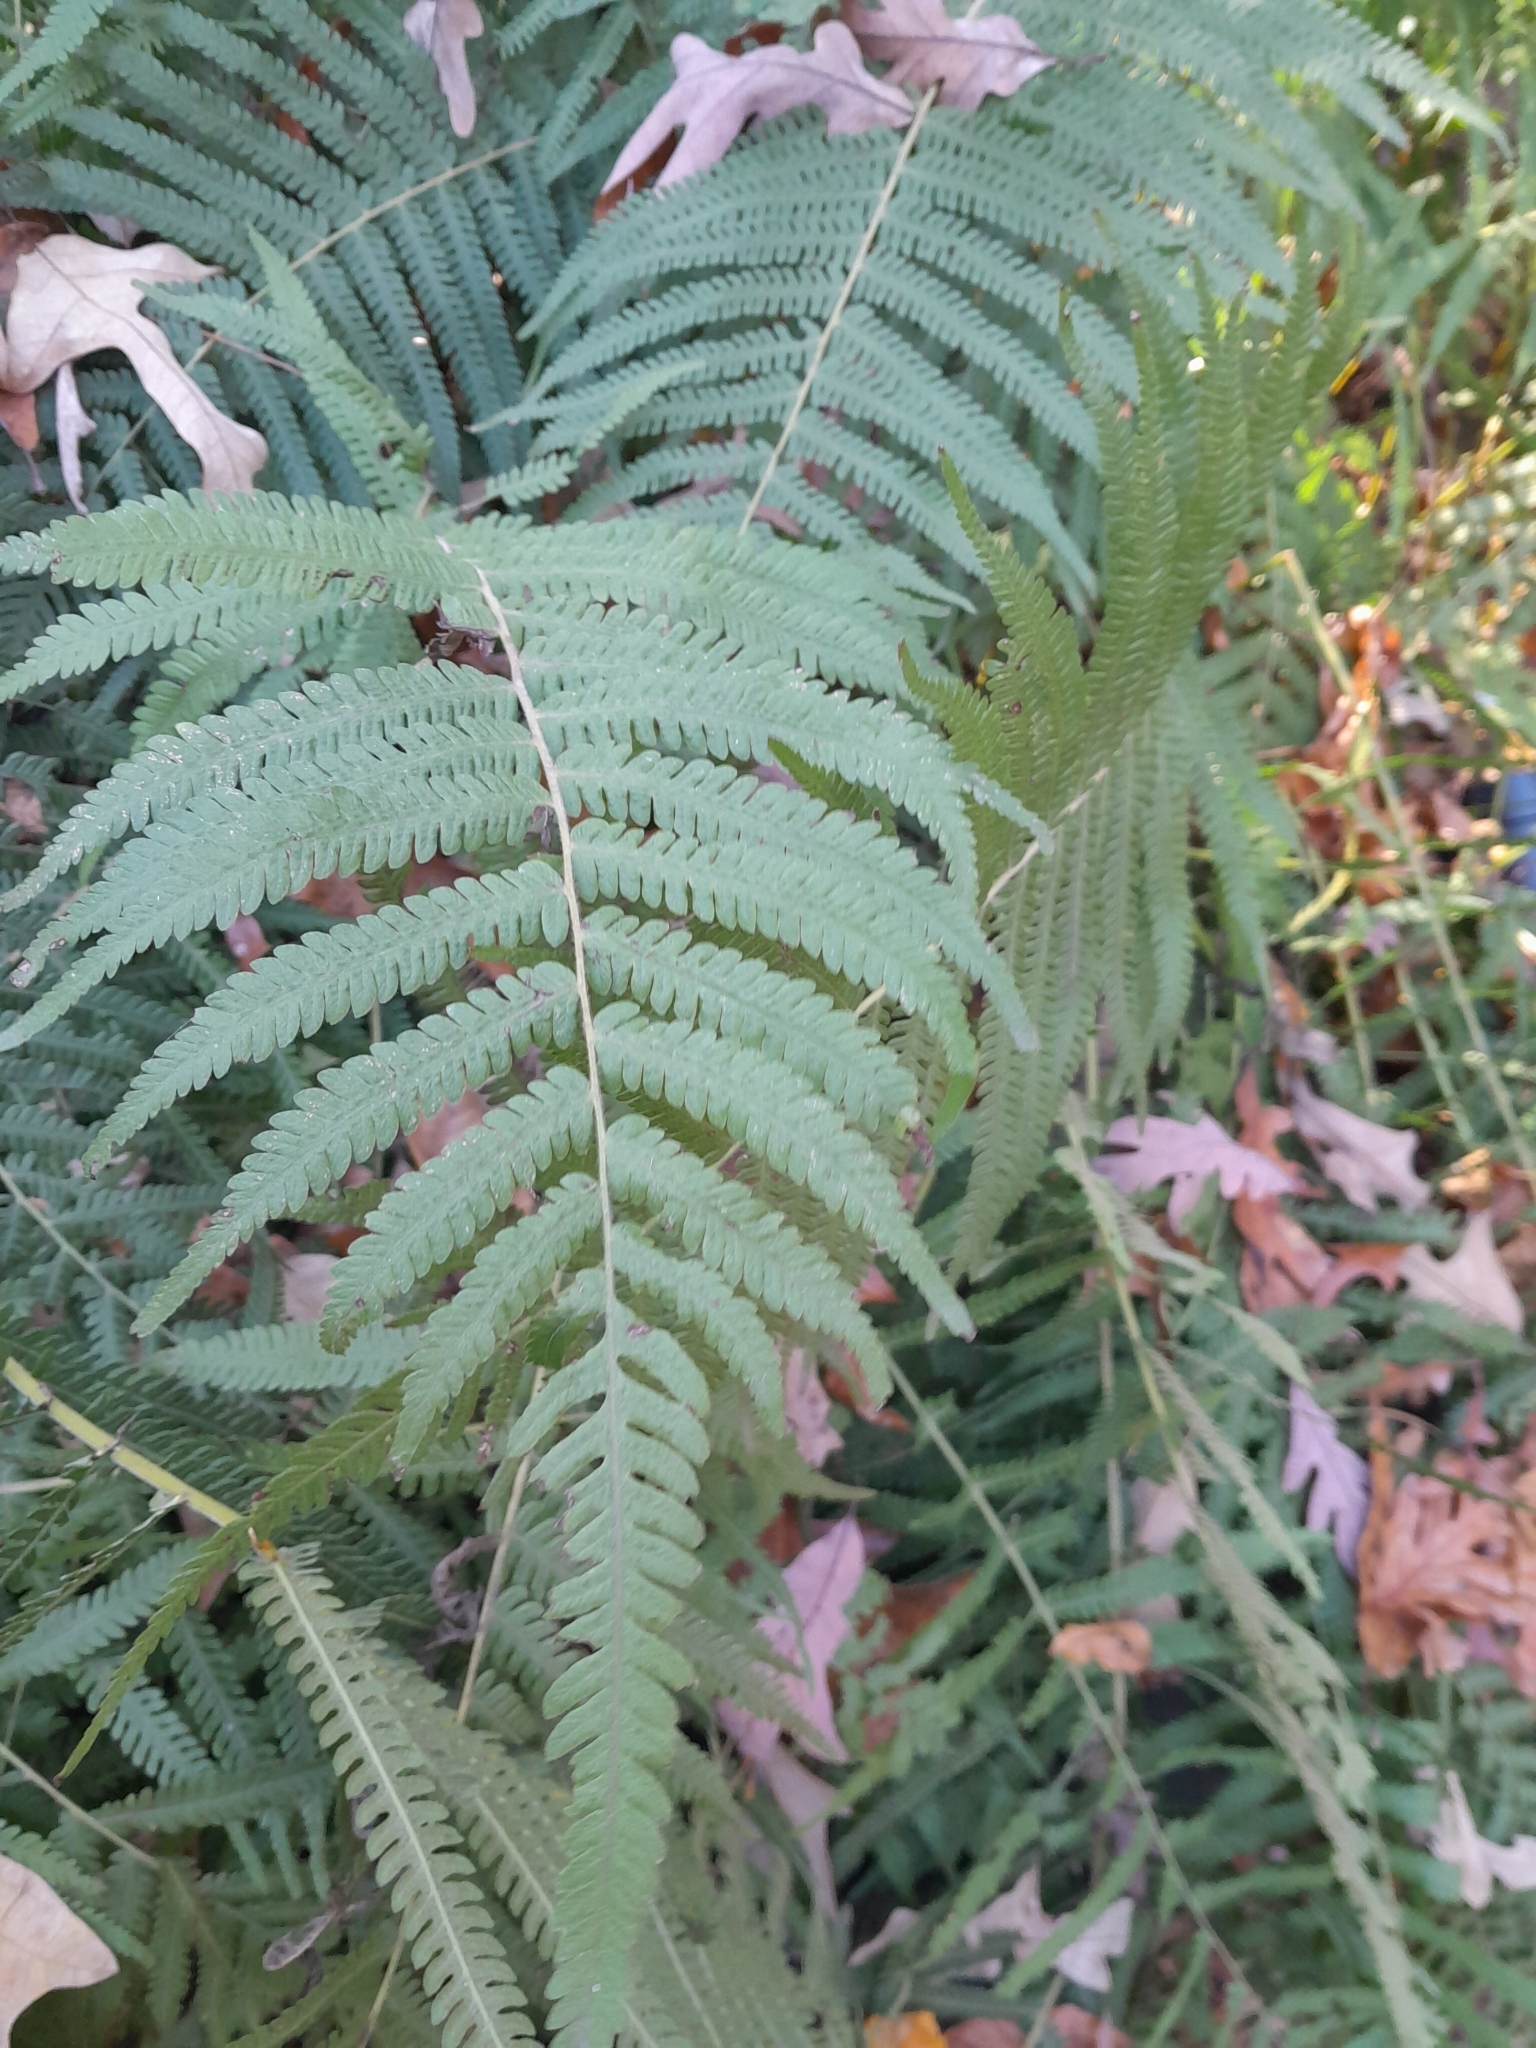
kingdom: Plantae
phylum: Tracheophyta
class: Polypodiopsida
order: Polypodiales
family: Thelypteridaceae
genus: Pelazoneuron
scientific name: Pelazoneuron kunthii
